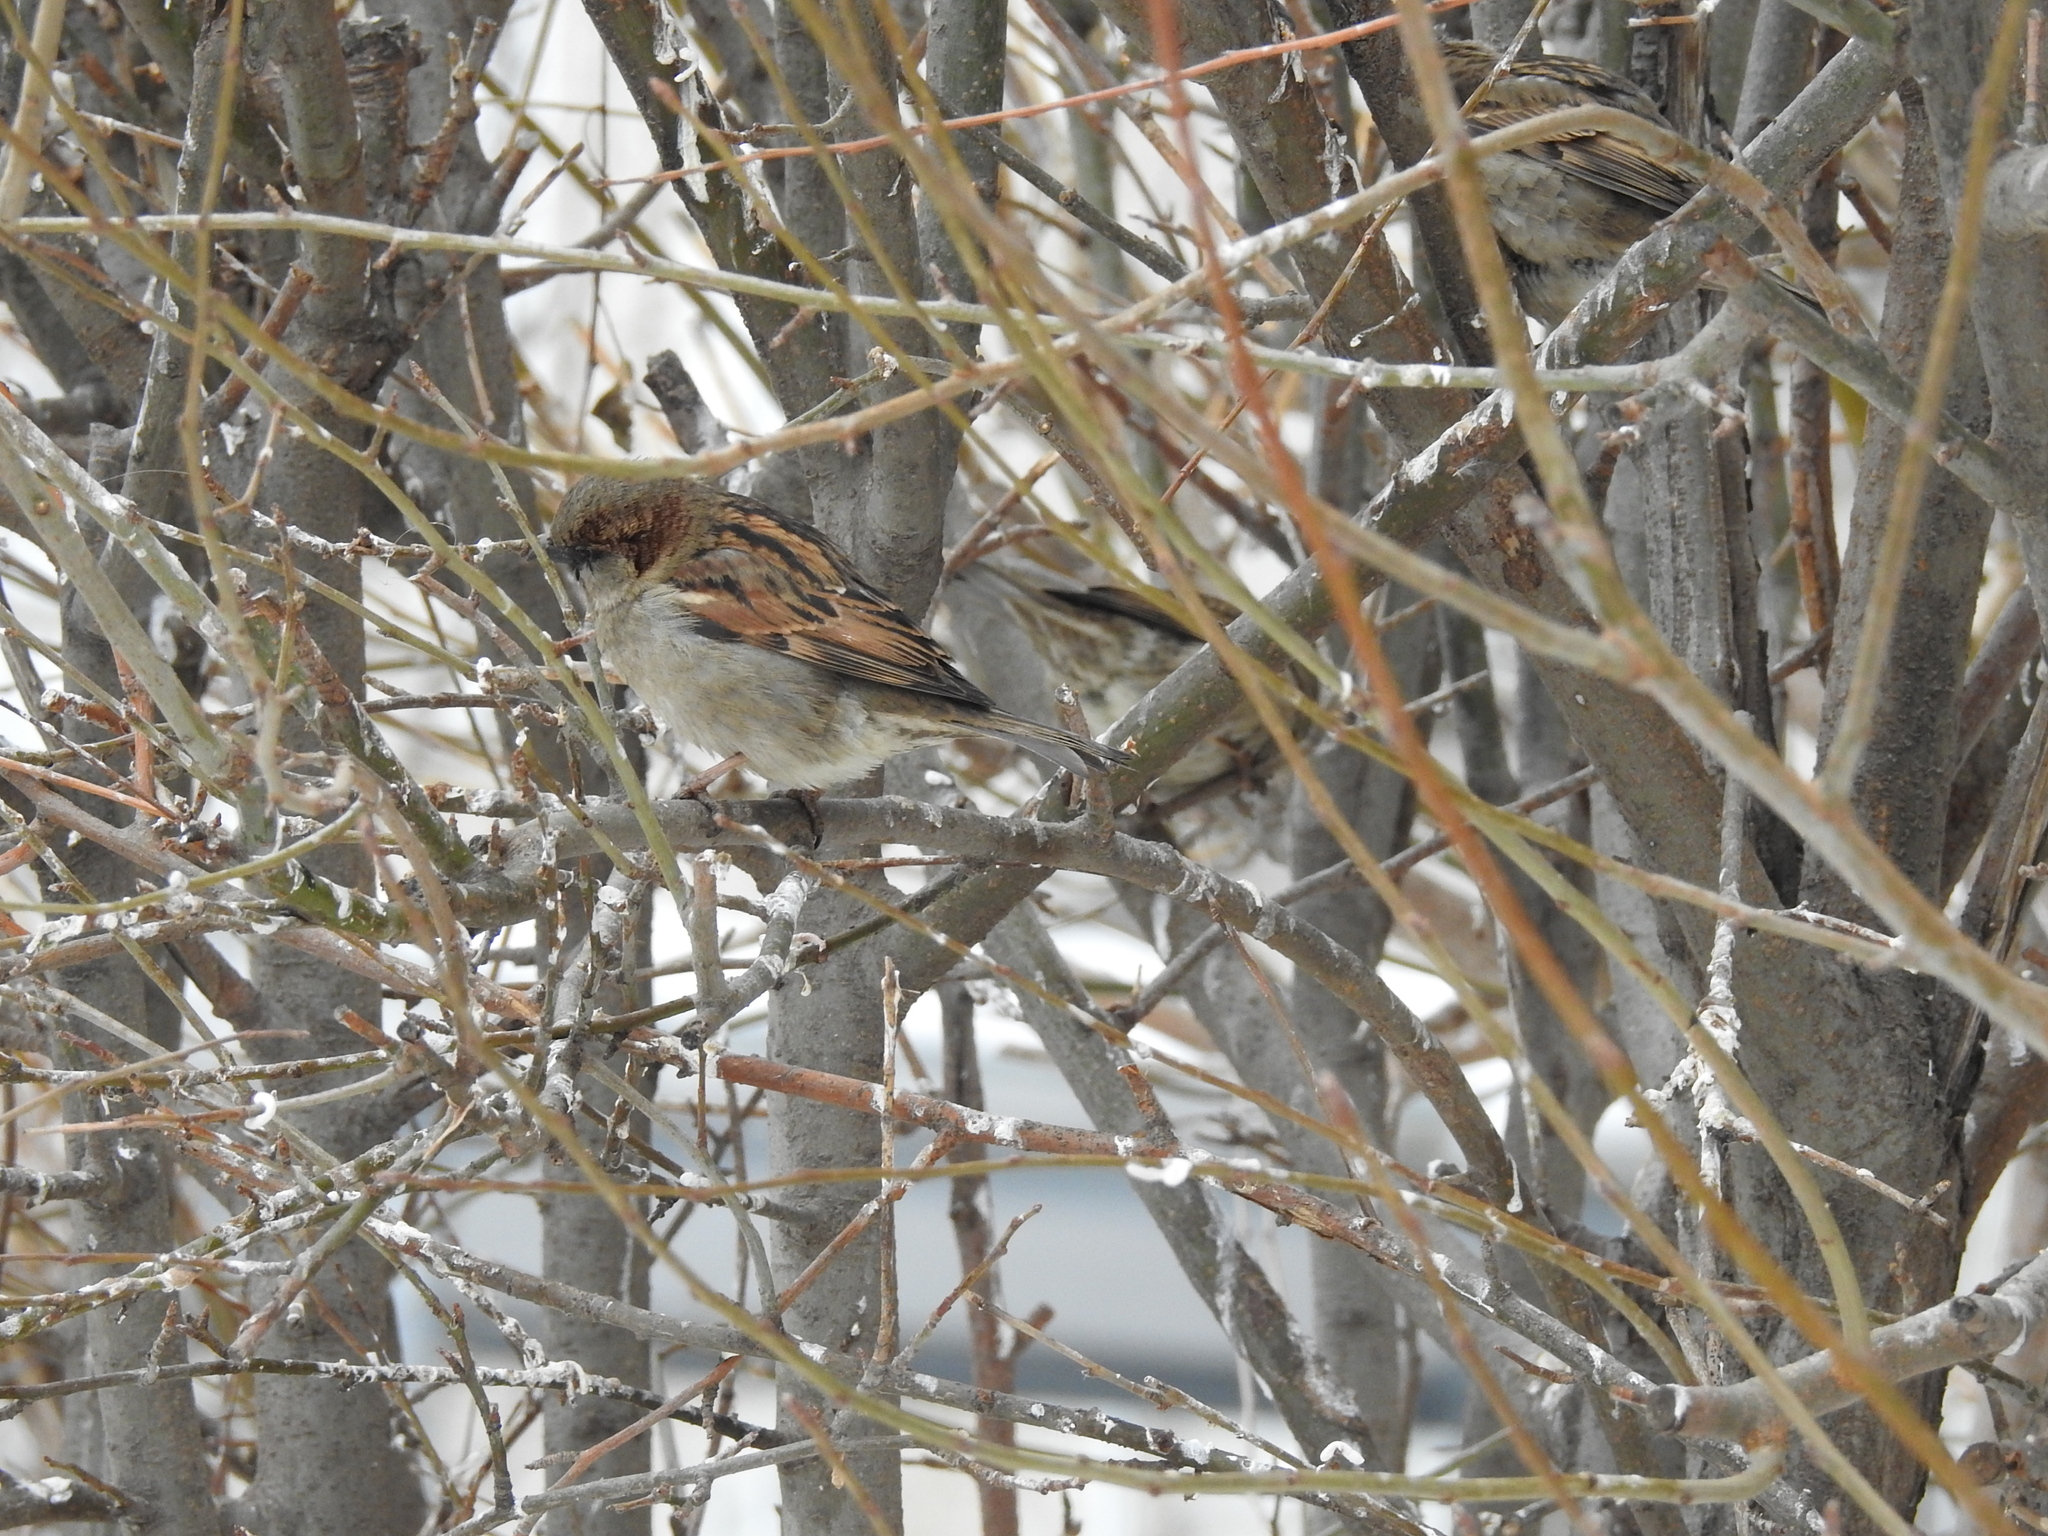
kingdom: Animalia
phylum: Chordata
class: Aves
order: Passeriformes
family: Passeridae
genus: Passer
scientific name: Passer domesticus
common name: House sparrow
